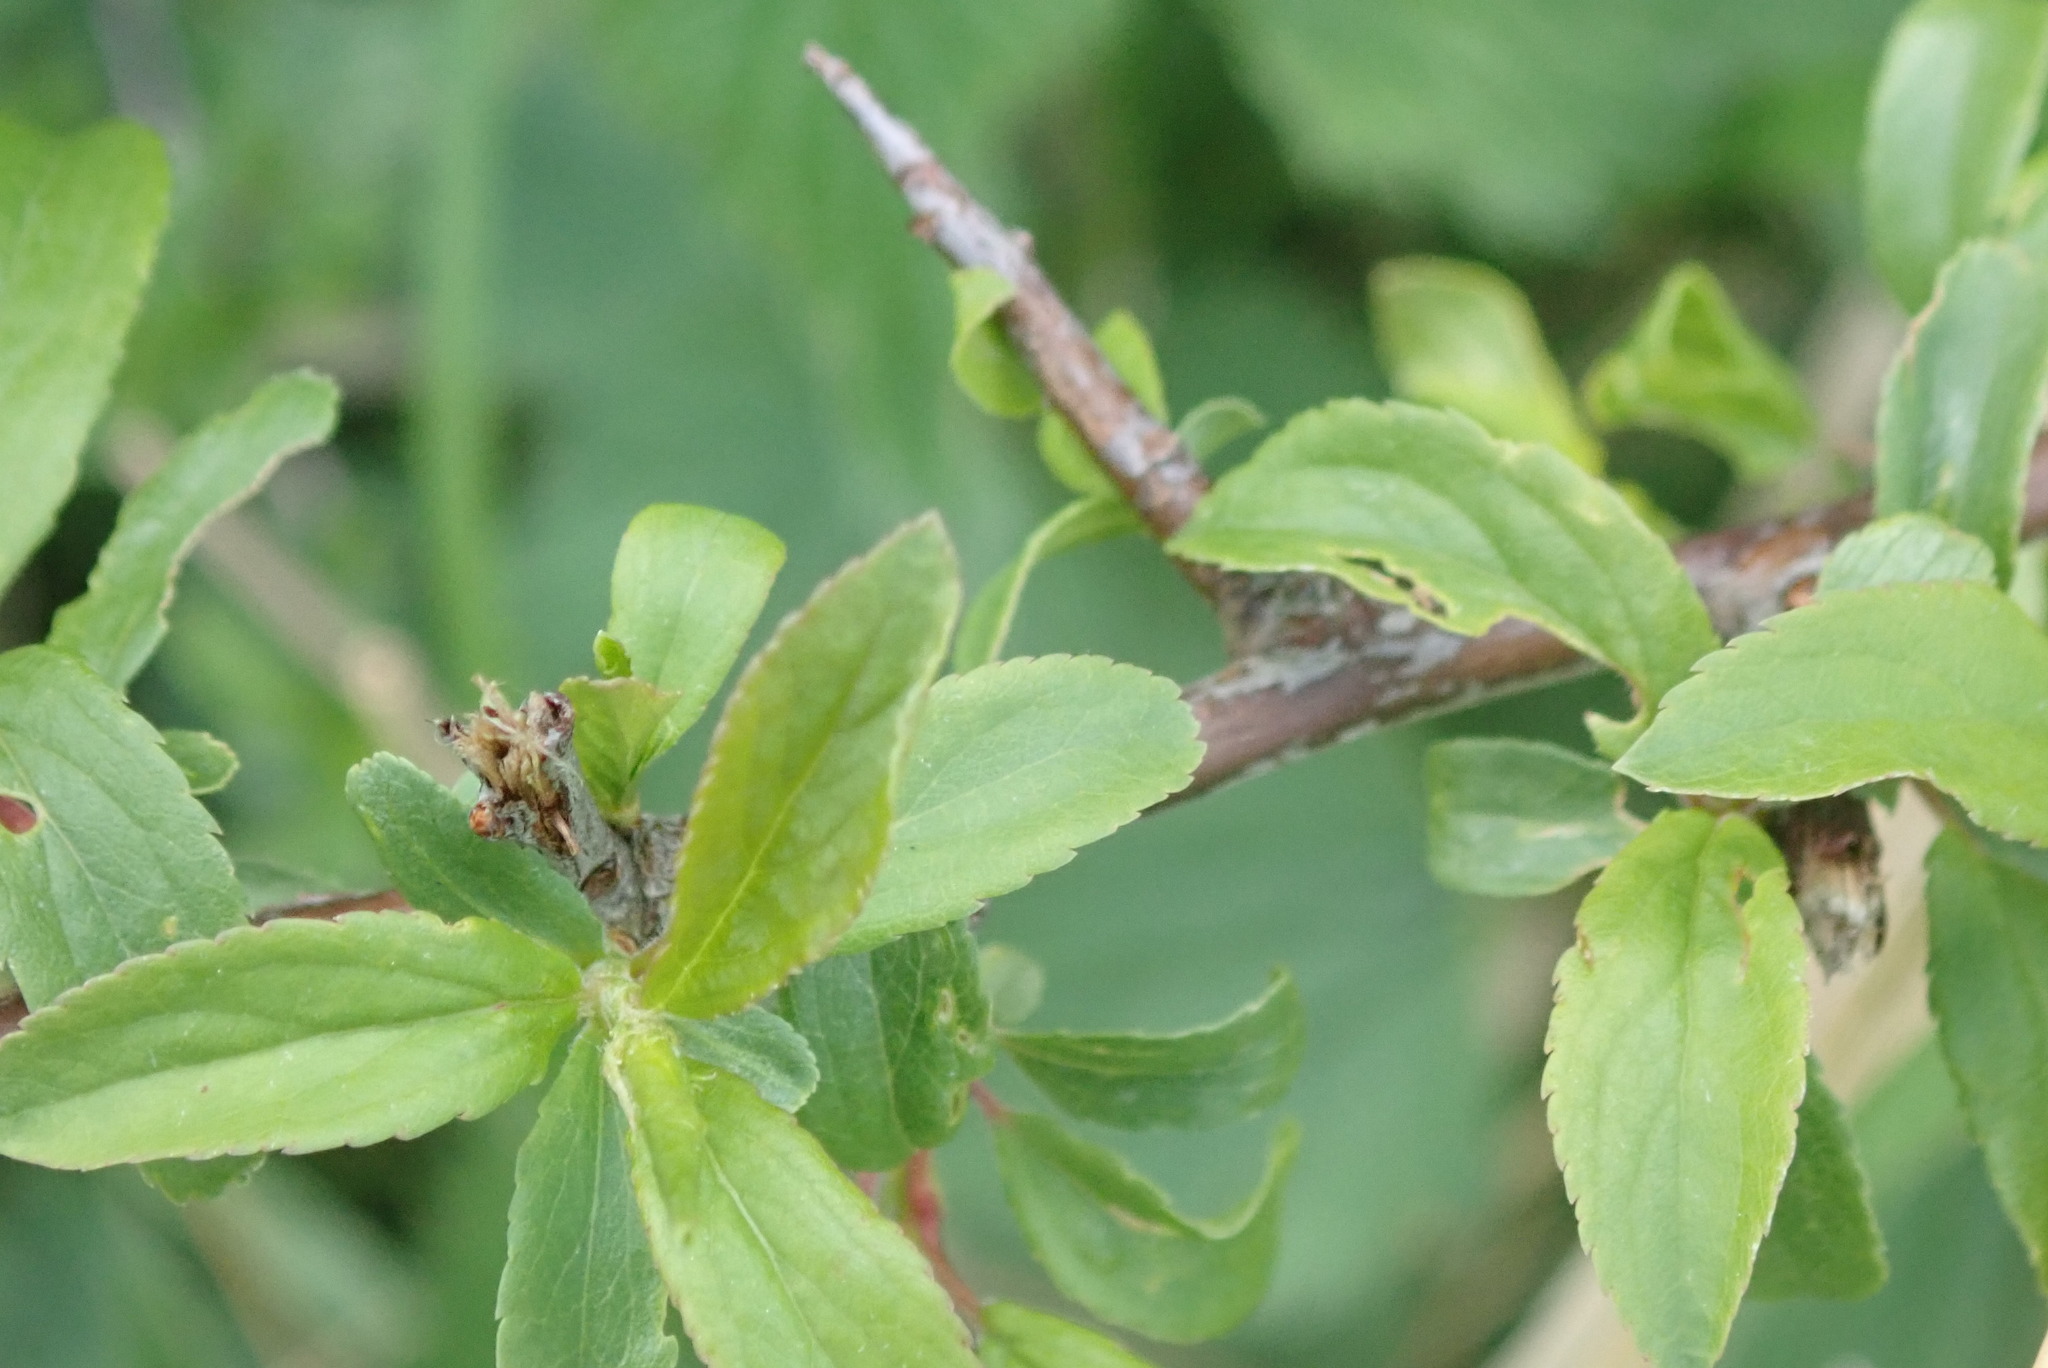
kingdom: Plantae
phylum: Tracheophyta
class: Magnoliopsida
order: Rosales
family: Rosaceae
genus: Prunus
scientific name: Prunus spinosa
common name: Blackthorn
